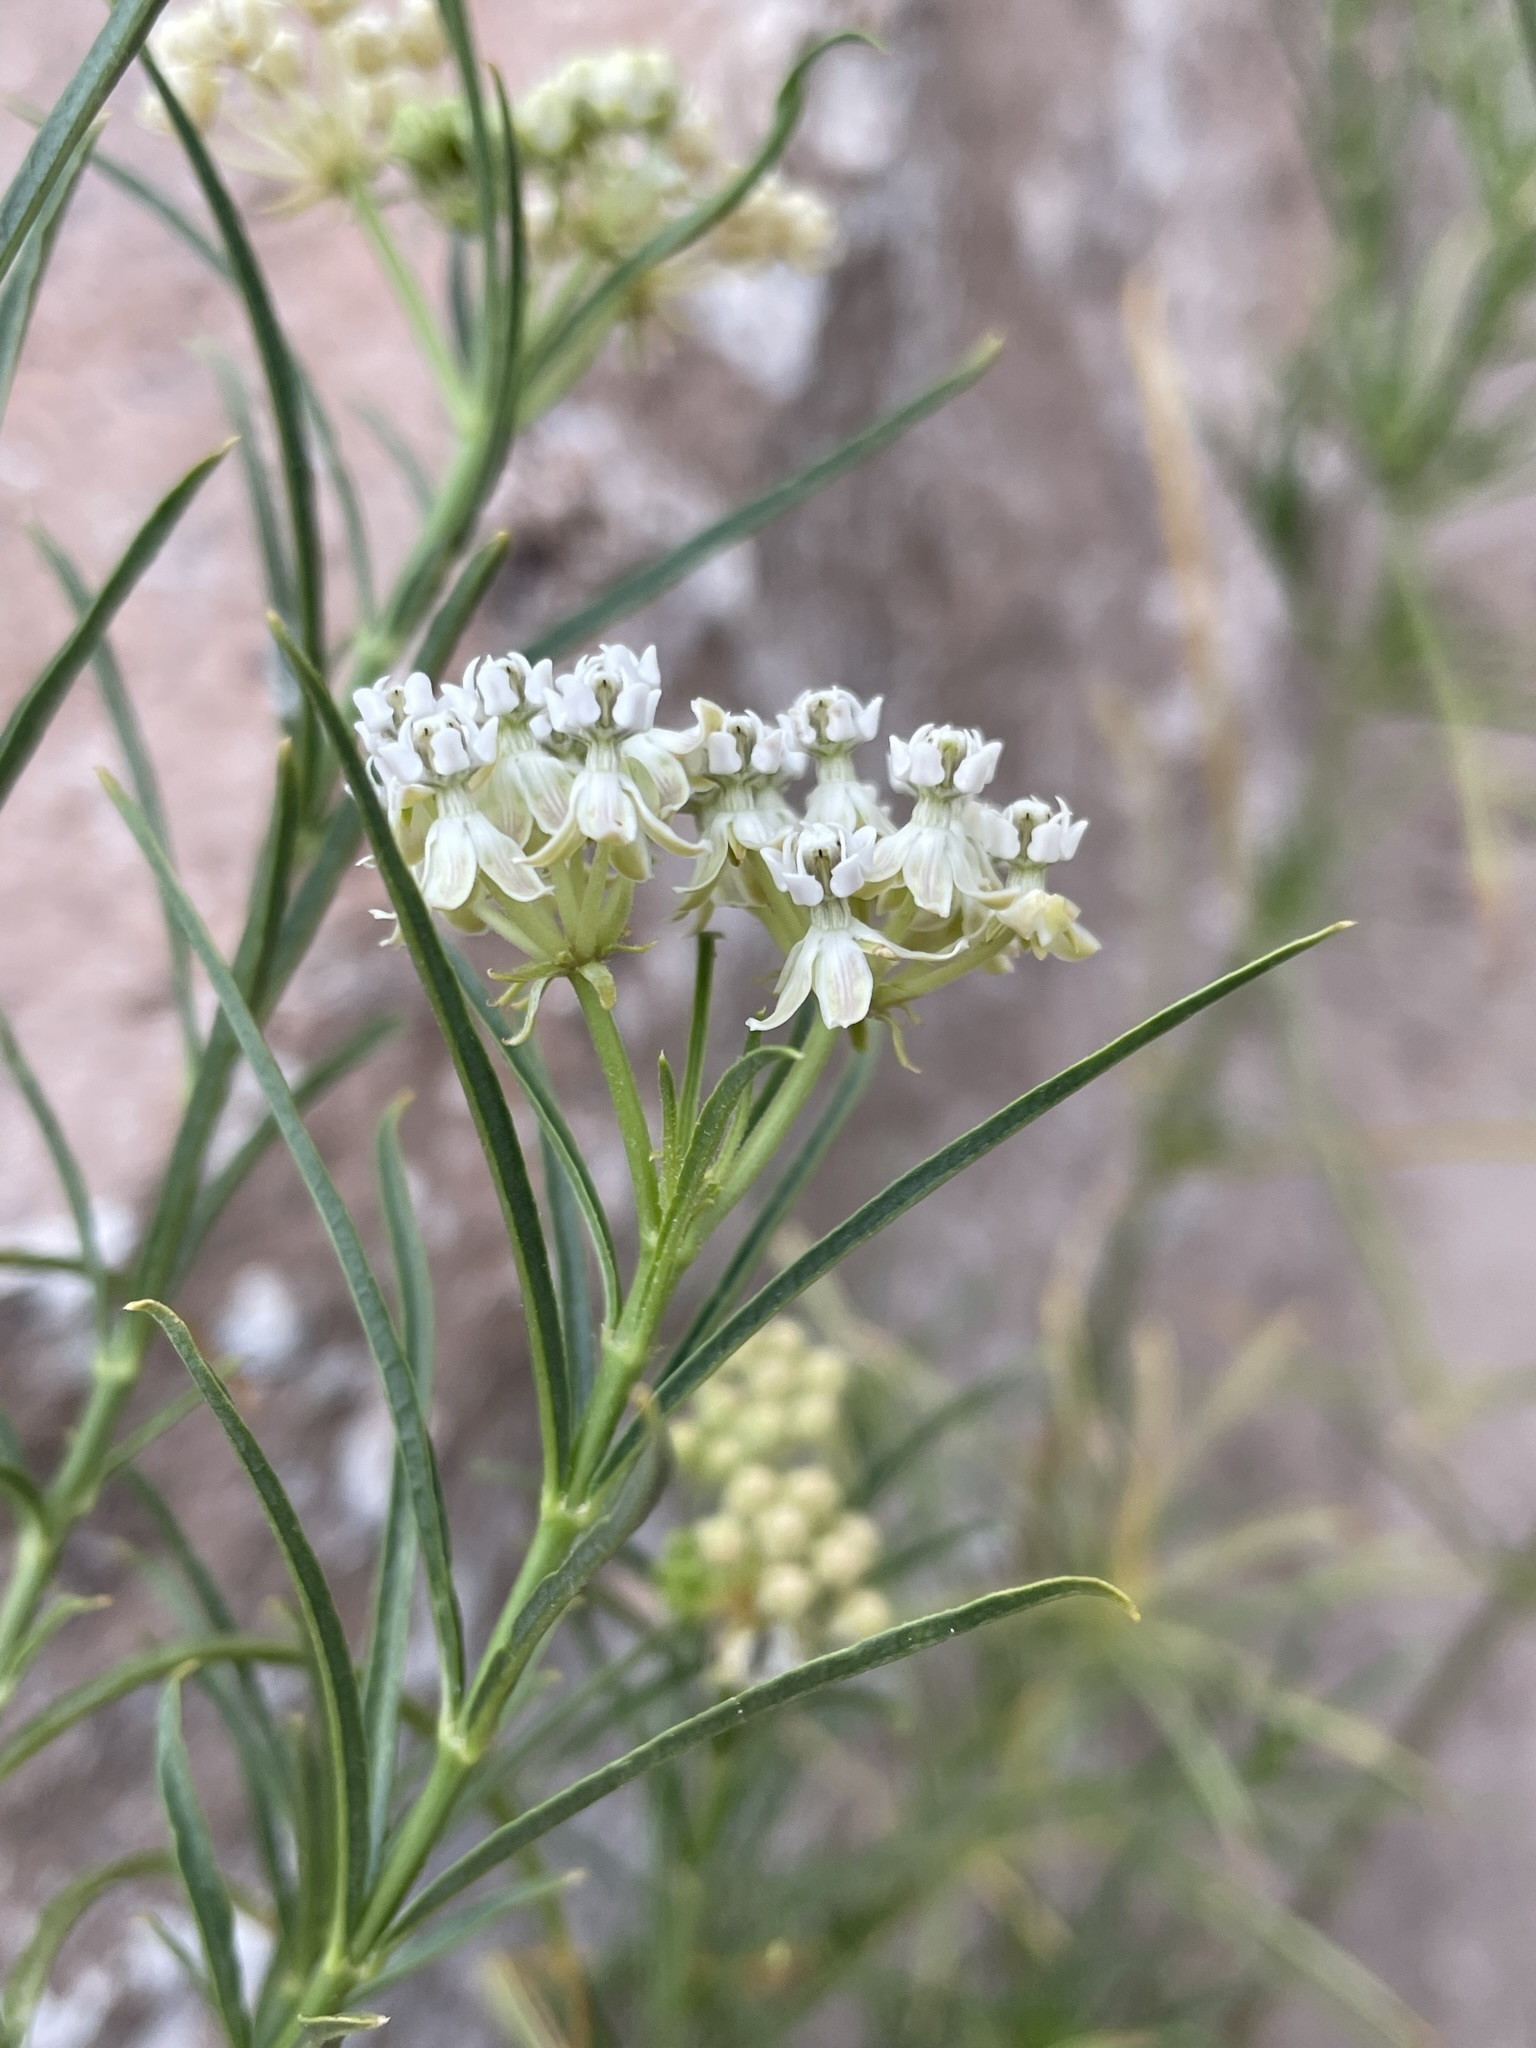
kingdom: Plantae
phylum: Tracheophyta
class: Magnoliopsida
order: Gentianales
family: Apocynaceae
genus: Asclepias
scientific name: Asclepias fascicularis
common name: Mexican milkweed
